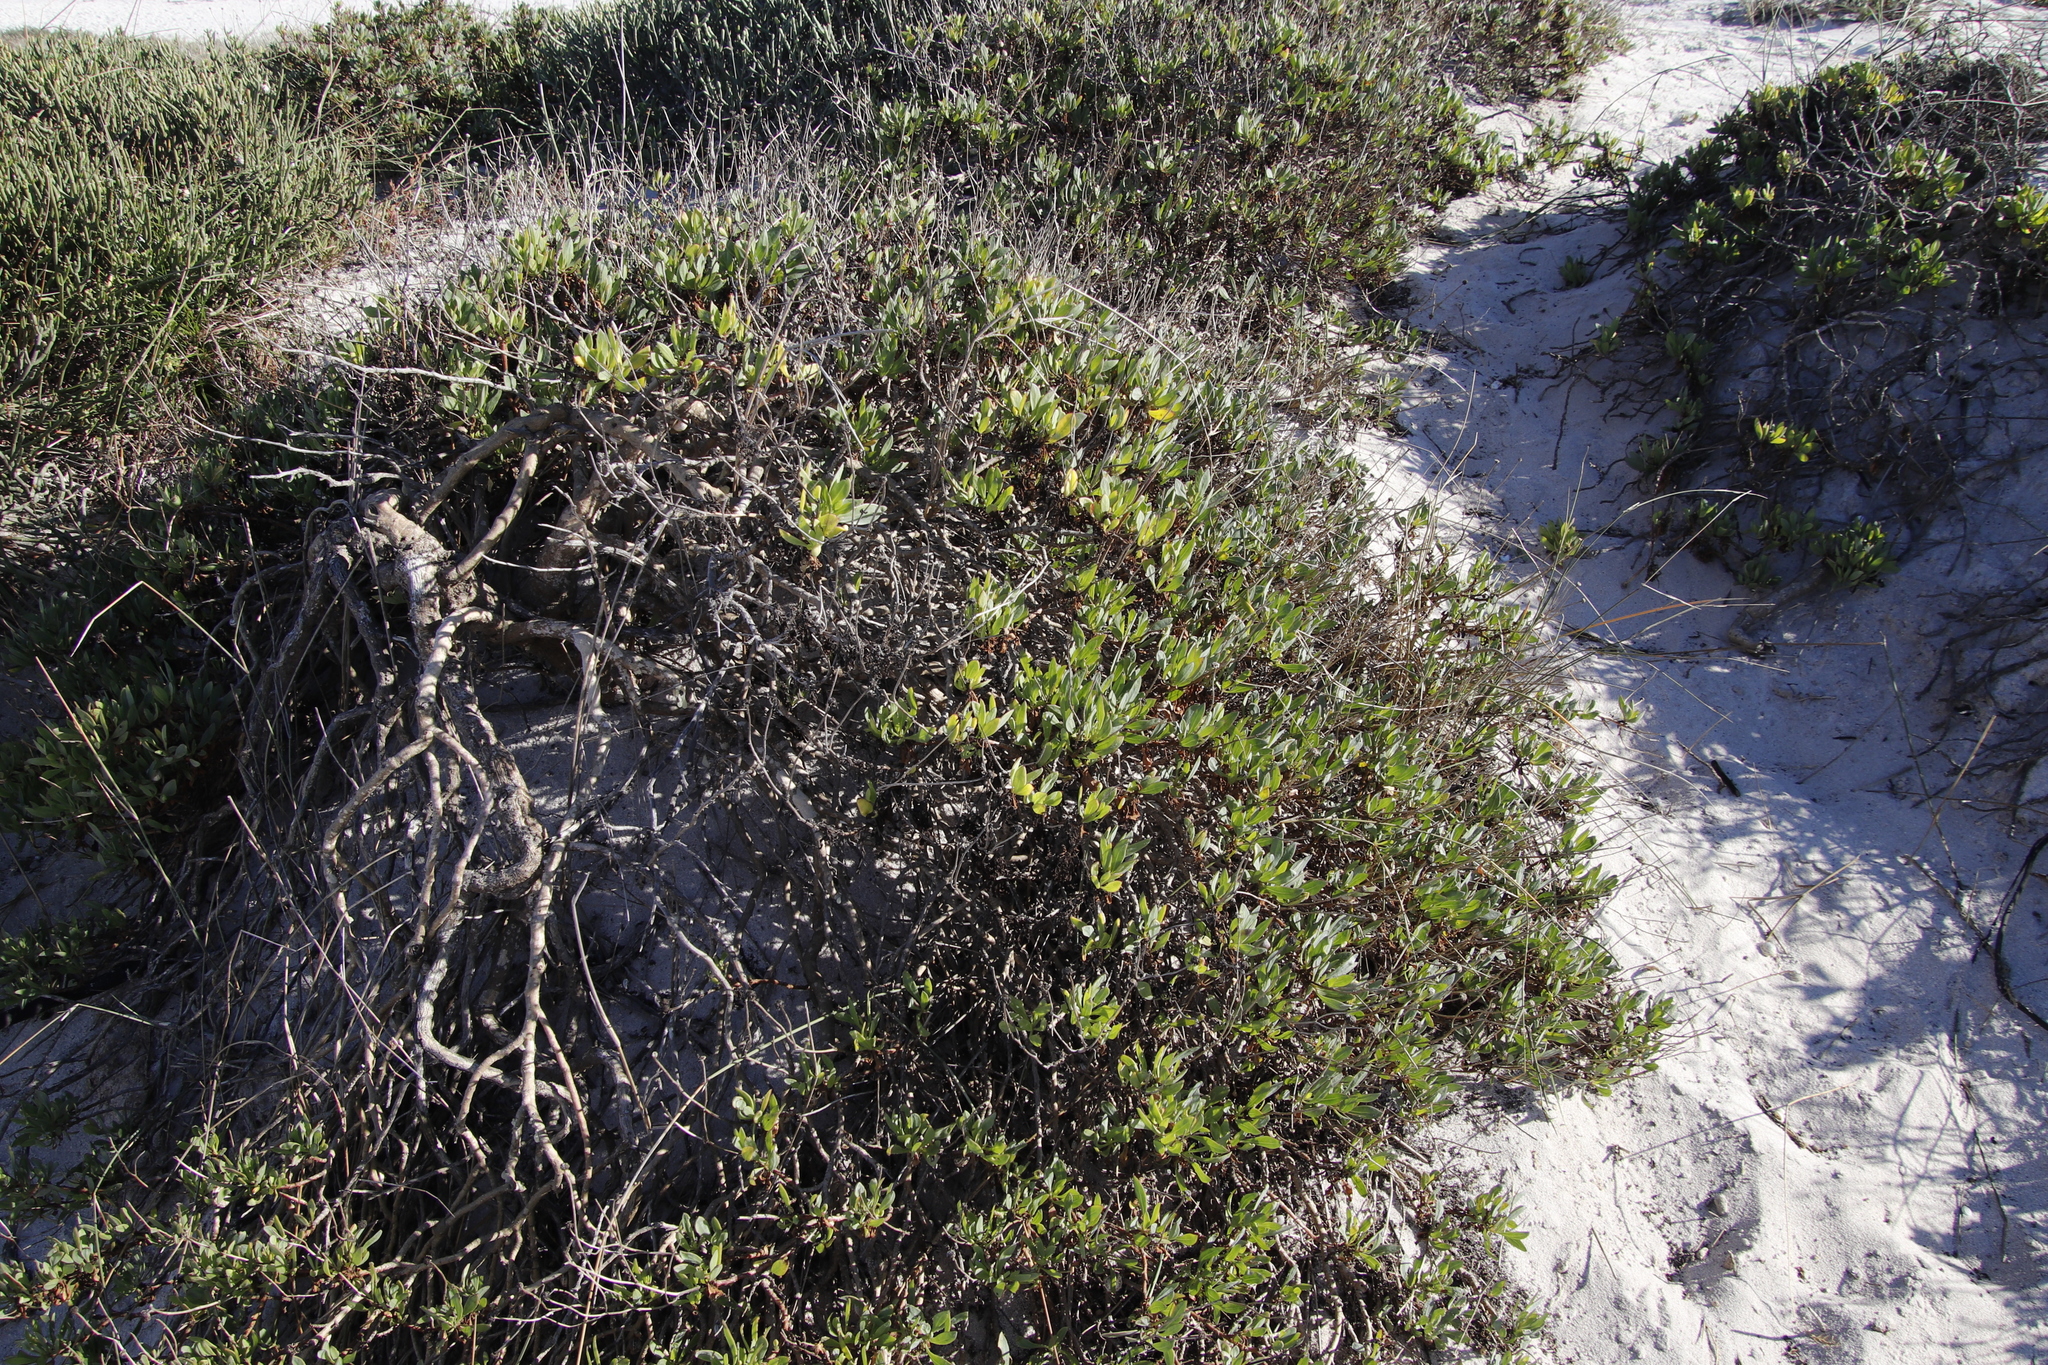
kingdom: Plantae
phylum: Tracheophyta
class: Magnoliopsida
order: Asterales
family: Asteraceae
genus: Othonna
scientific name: Othonna coronopifolia
